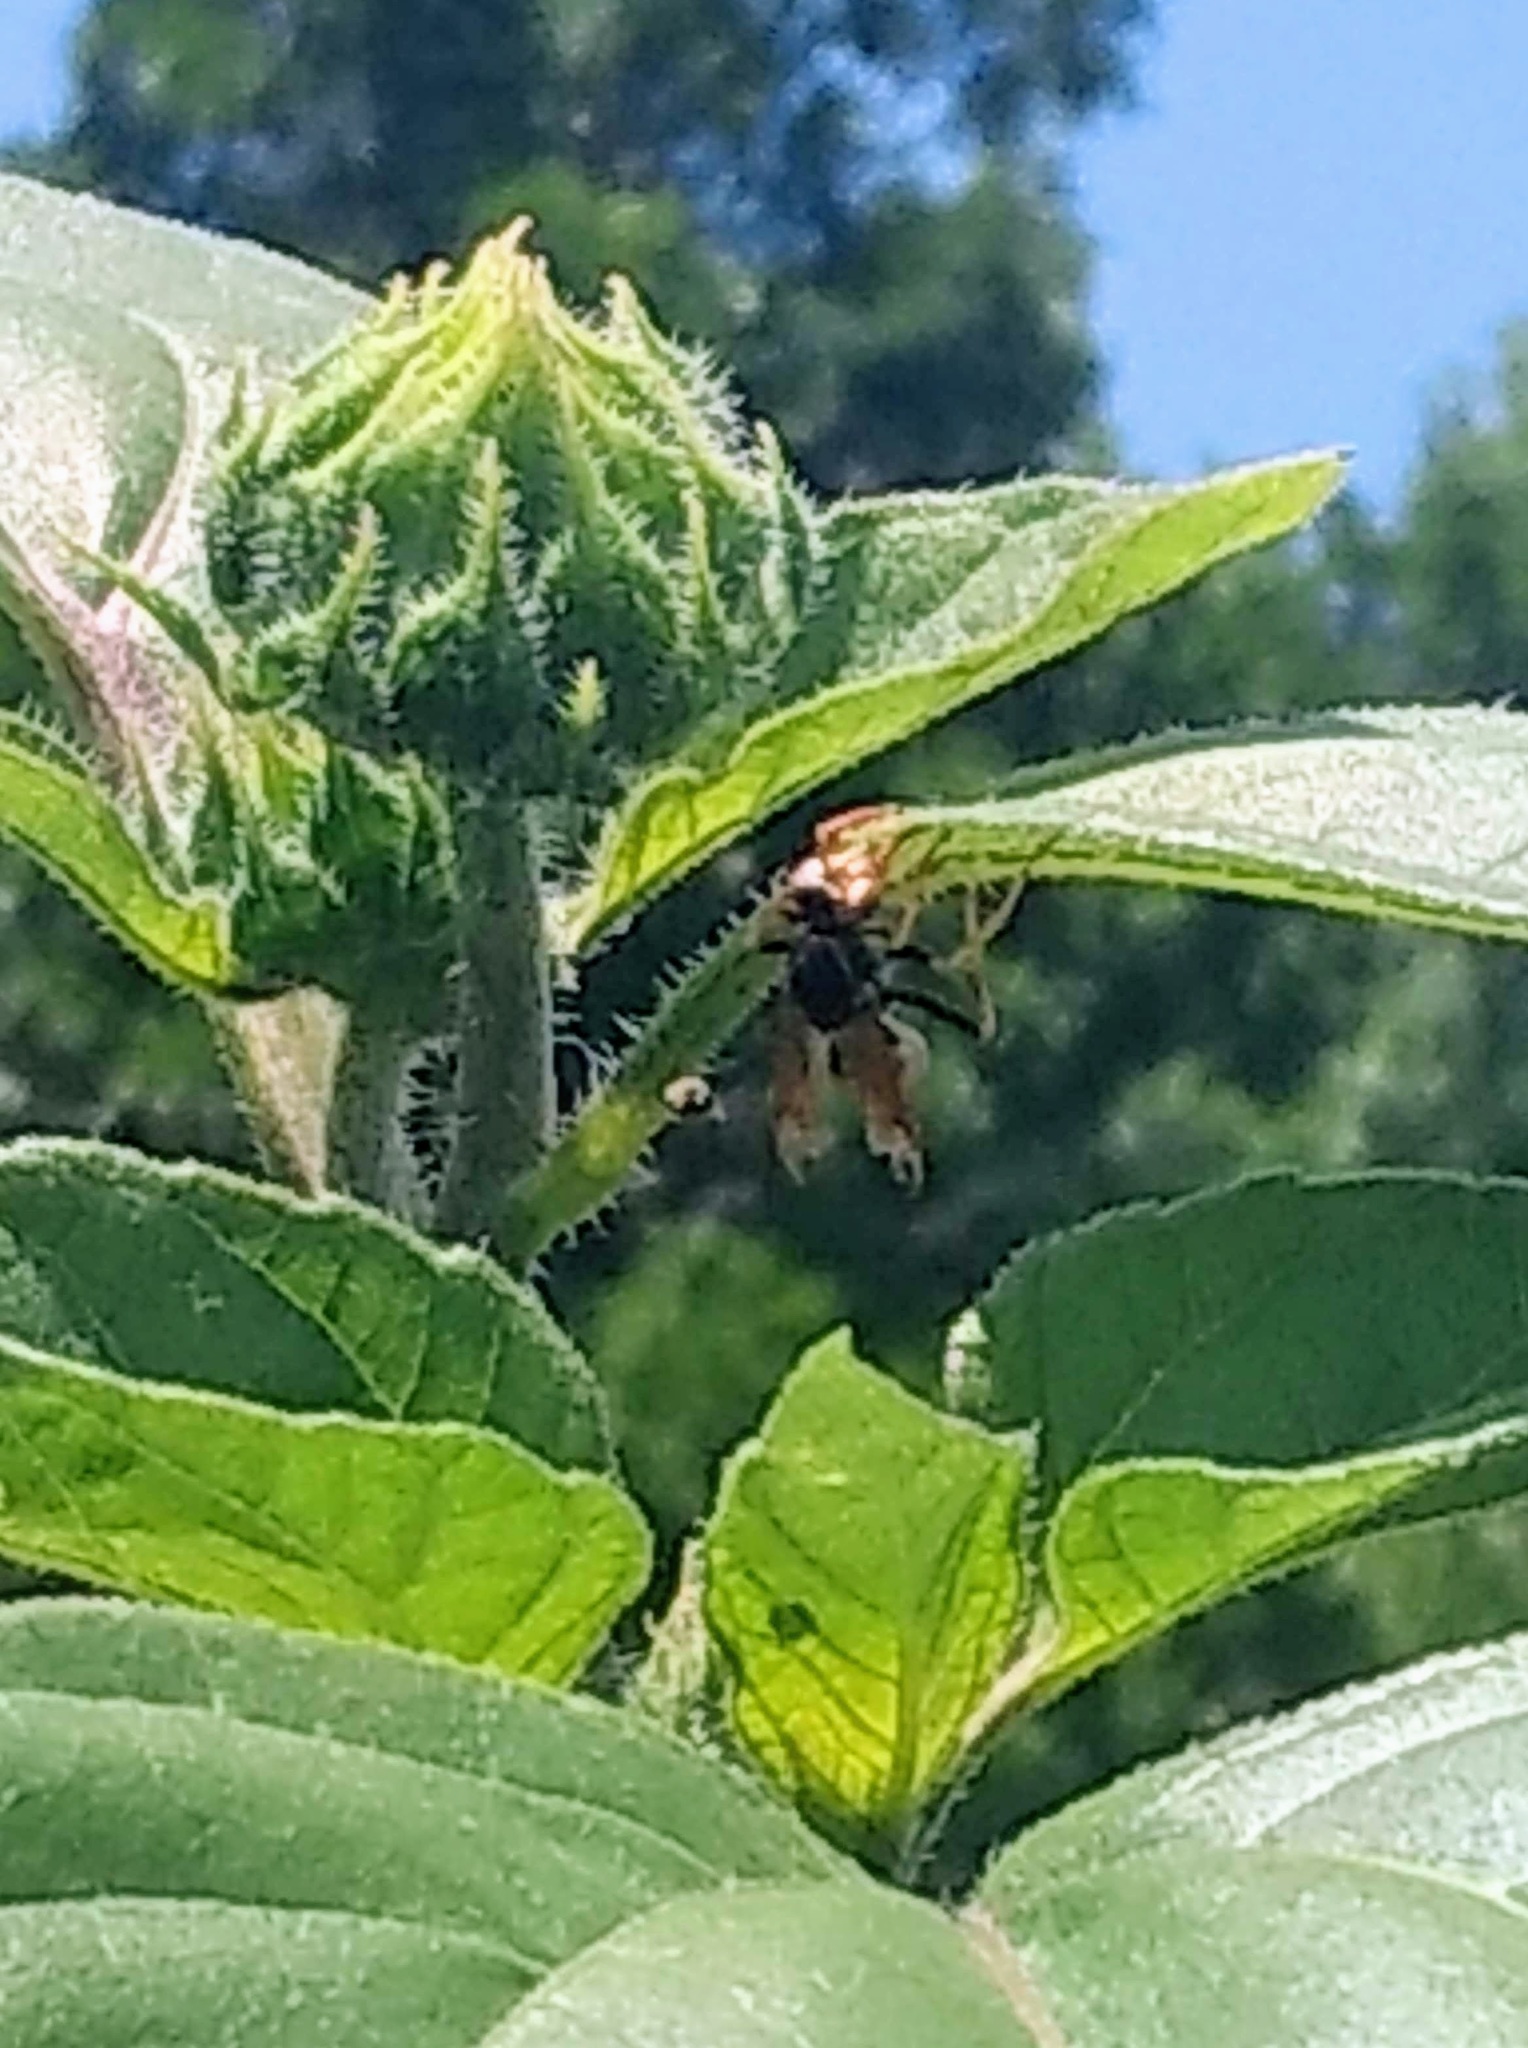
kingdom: Animalia
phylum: Arthropoda
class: Insecta
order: Hymenoptera
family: Eumenidae
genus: Polistes
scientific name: Polistes aurifer
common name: Paper wasp
